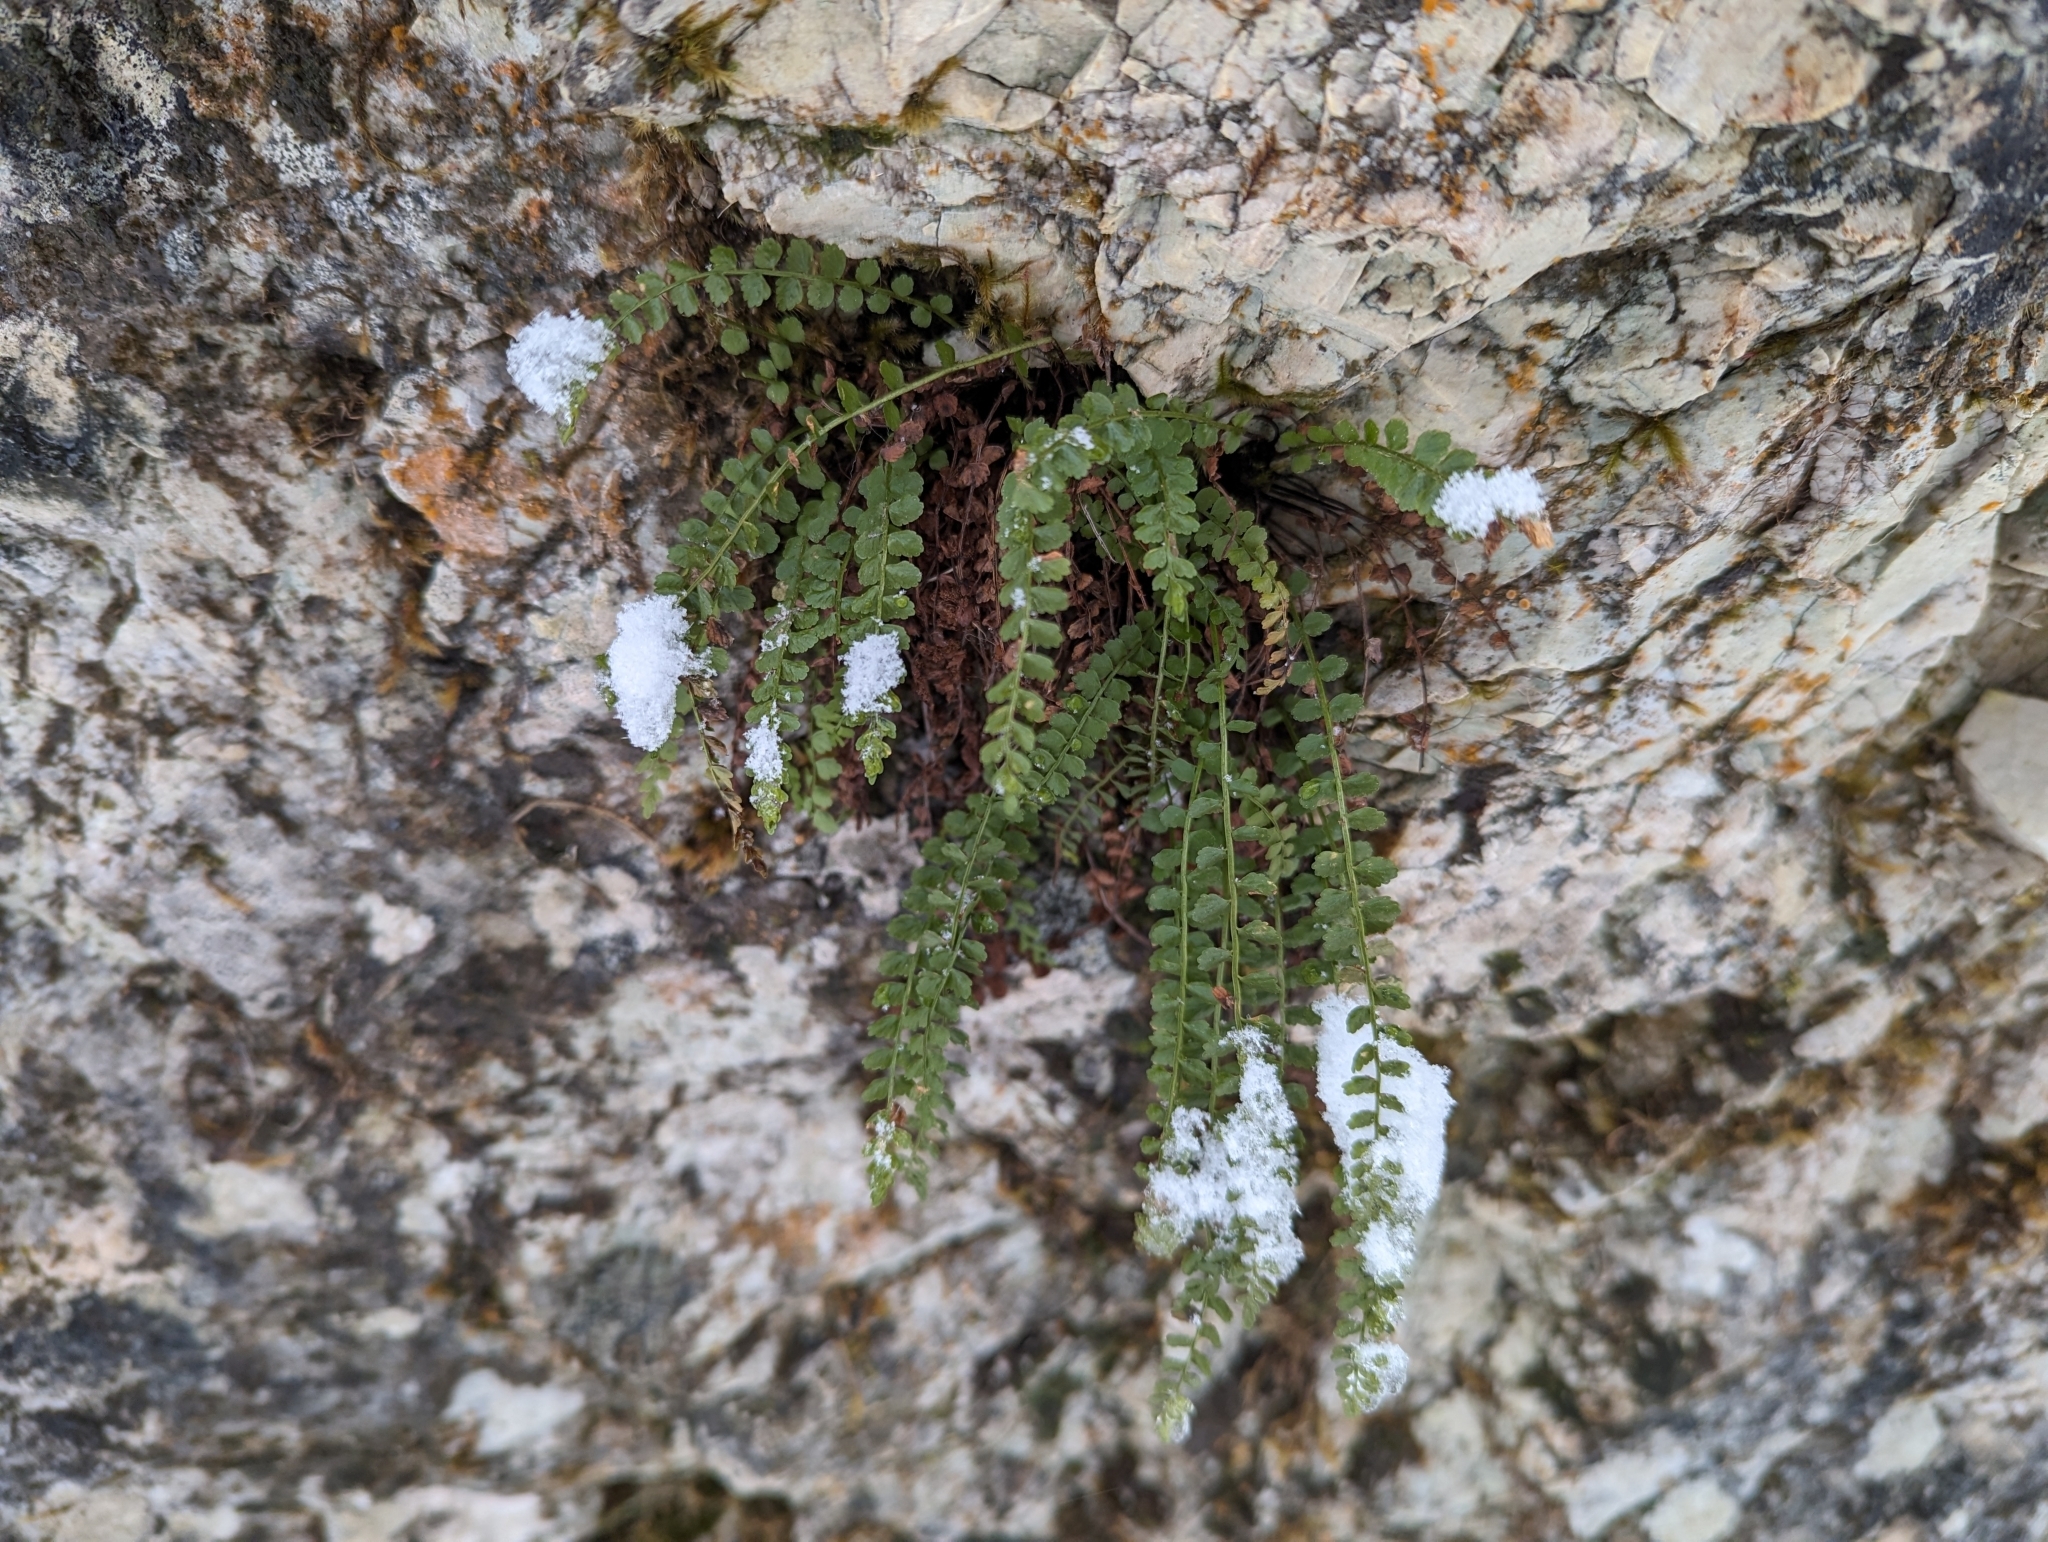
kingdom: Plantae
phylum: Tracheophyta
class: Polypodiopsida
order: Polypodiales
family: Aspleniaceae
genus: Asplenium
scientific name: Asplenium viride
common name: Green spleenwort
